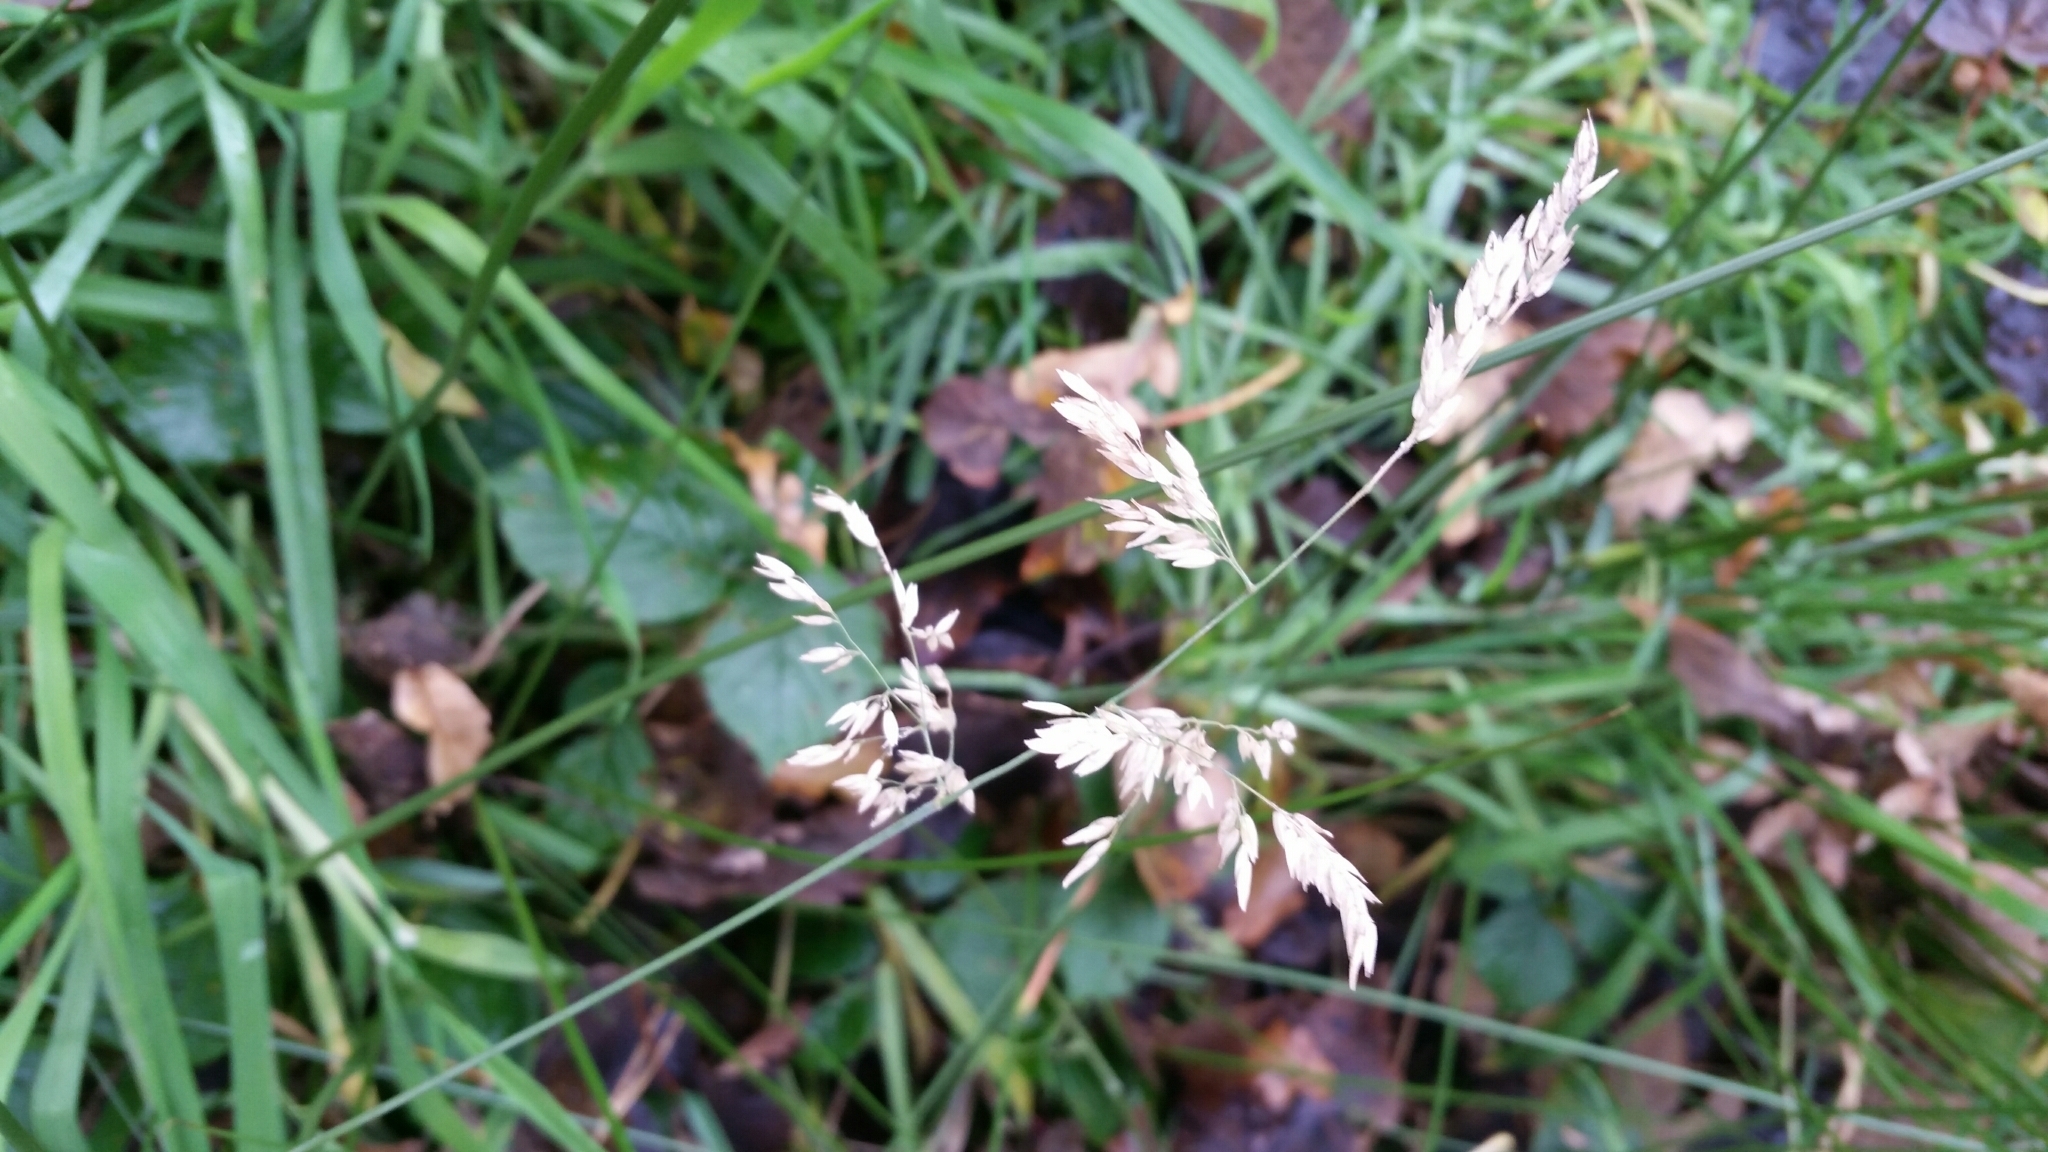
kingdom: Plantae
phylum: Tracheophyta
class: Liliopsida
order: Poales
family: Poaceae
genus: Poa
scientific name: Poa annua
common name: Annual bluegrass
